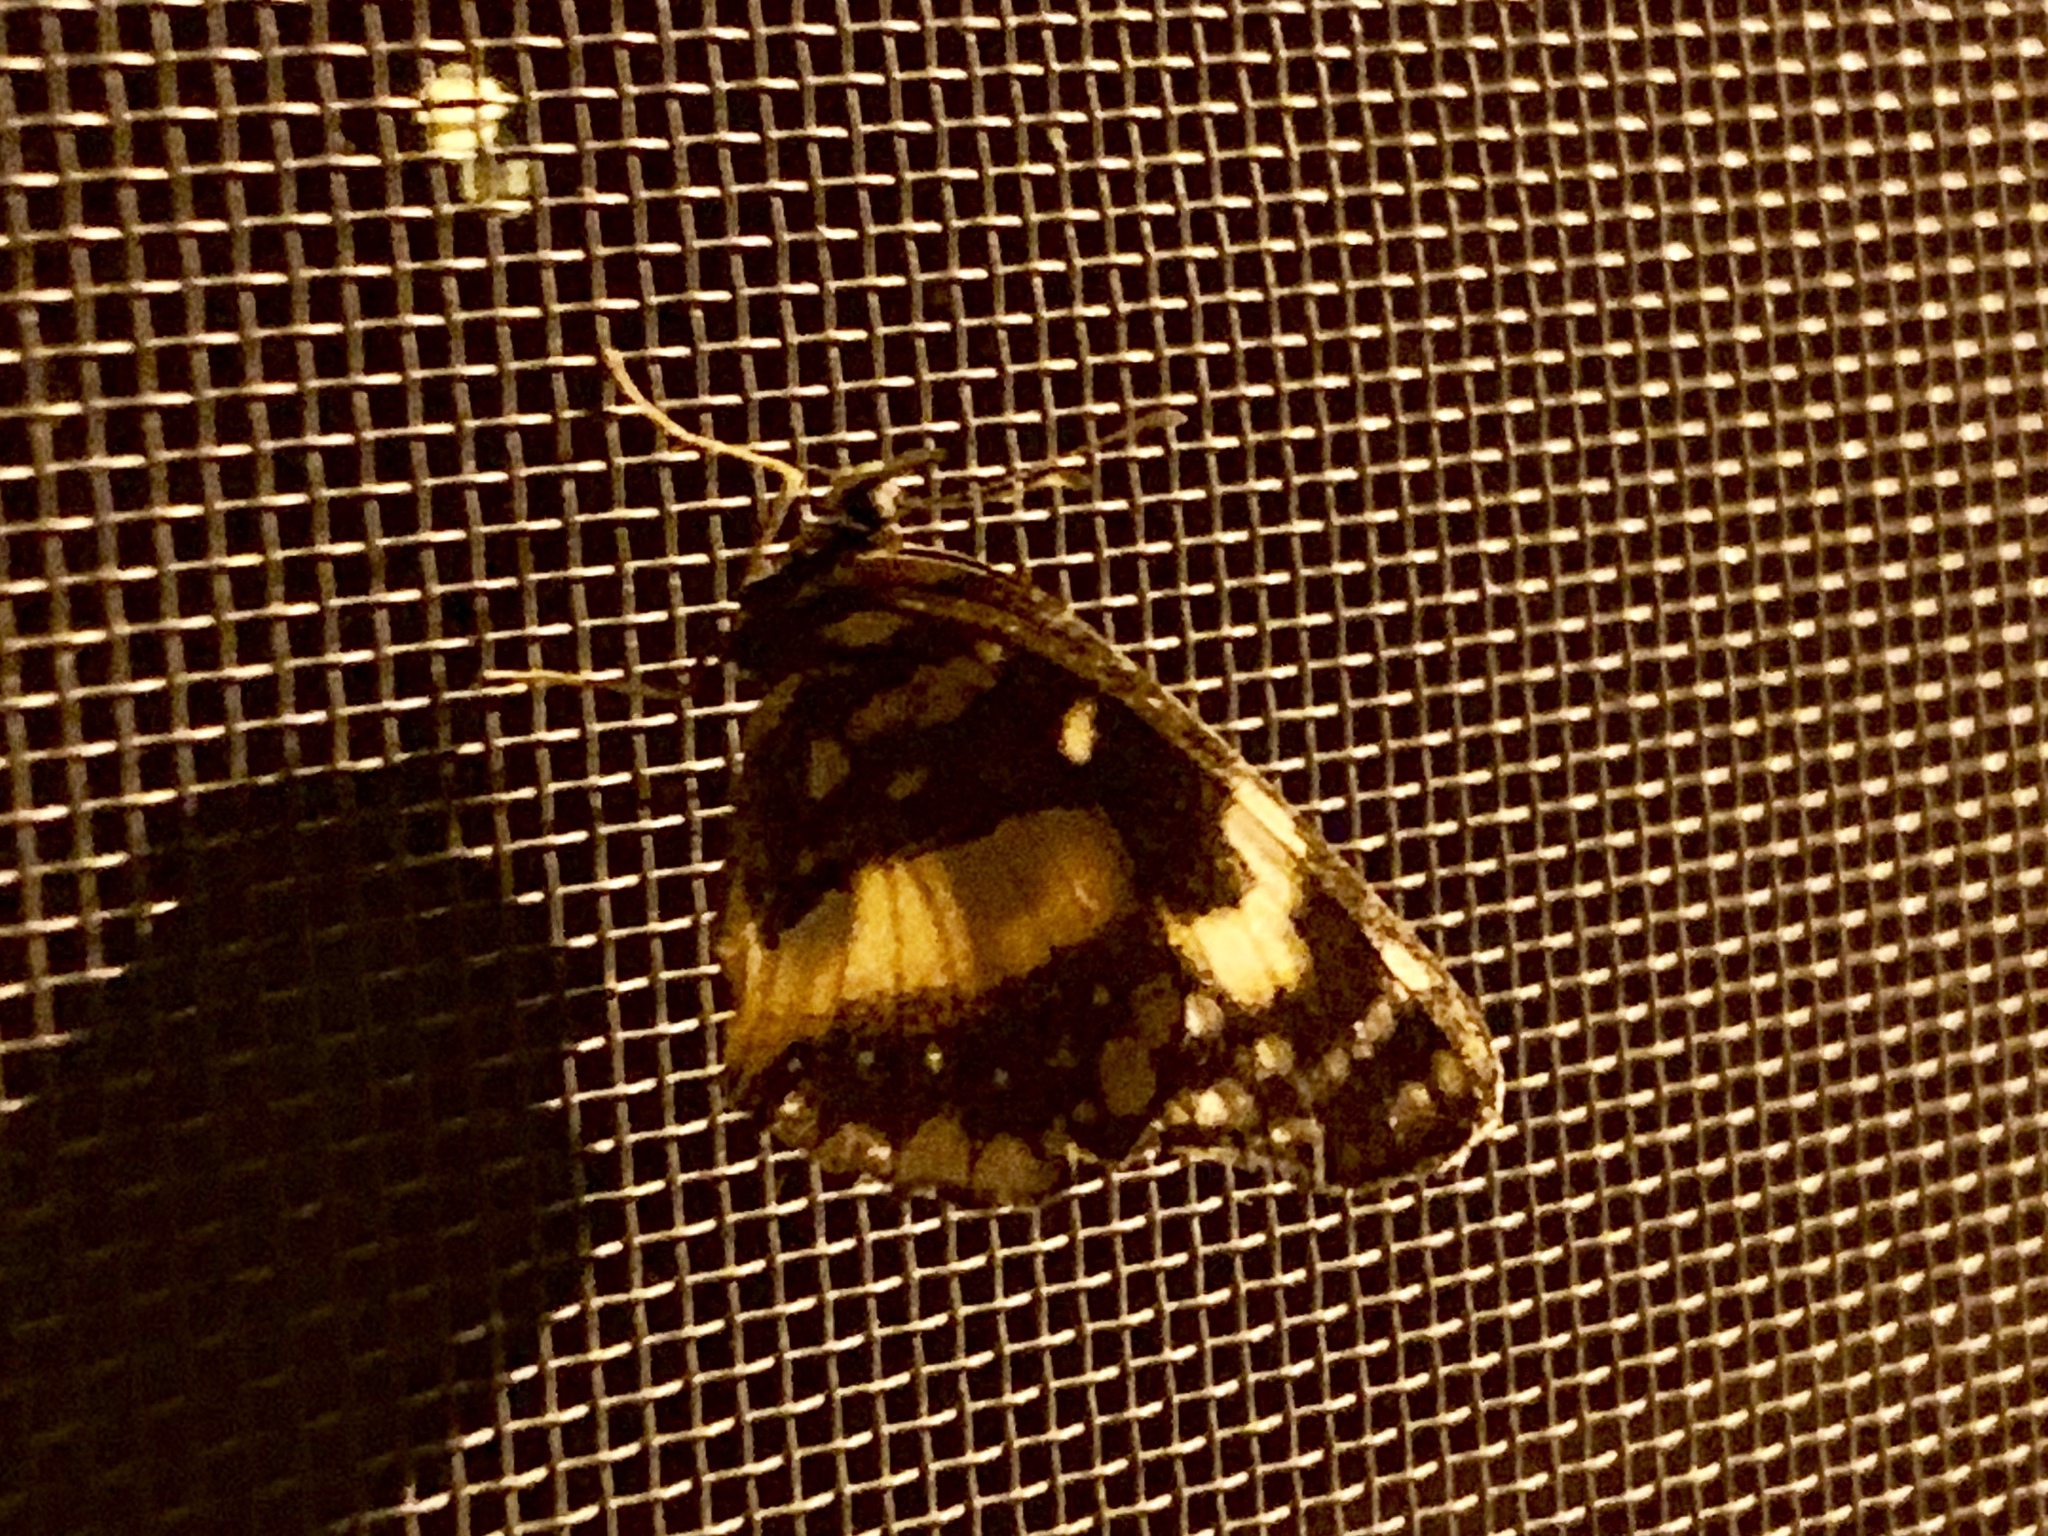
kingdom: Animalia
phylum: Arthropoda
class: Insecta
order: Lepidoptera
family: Nymphalidae
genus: Chlosyne
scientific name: Chlosyne lacinia
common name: Bordered patch
